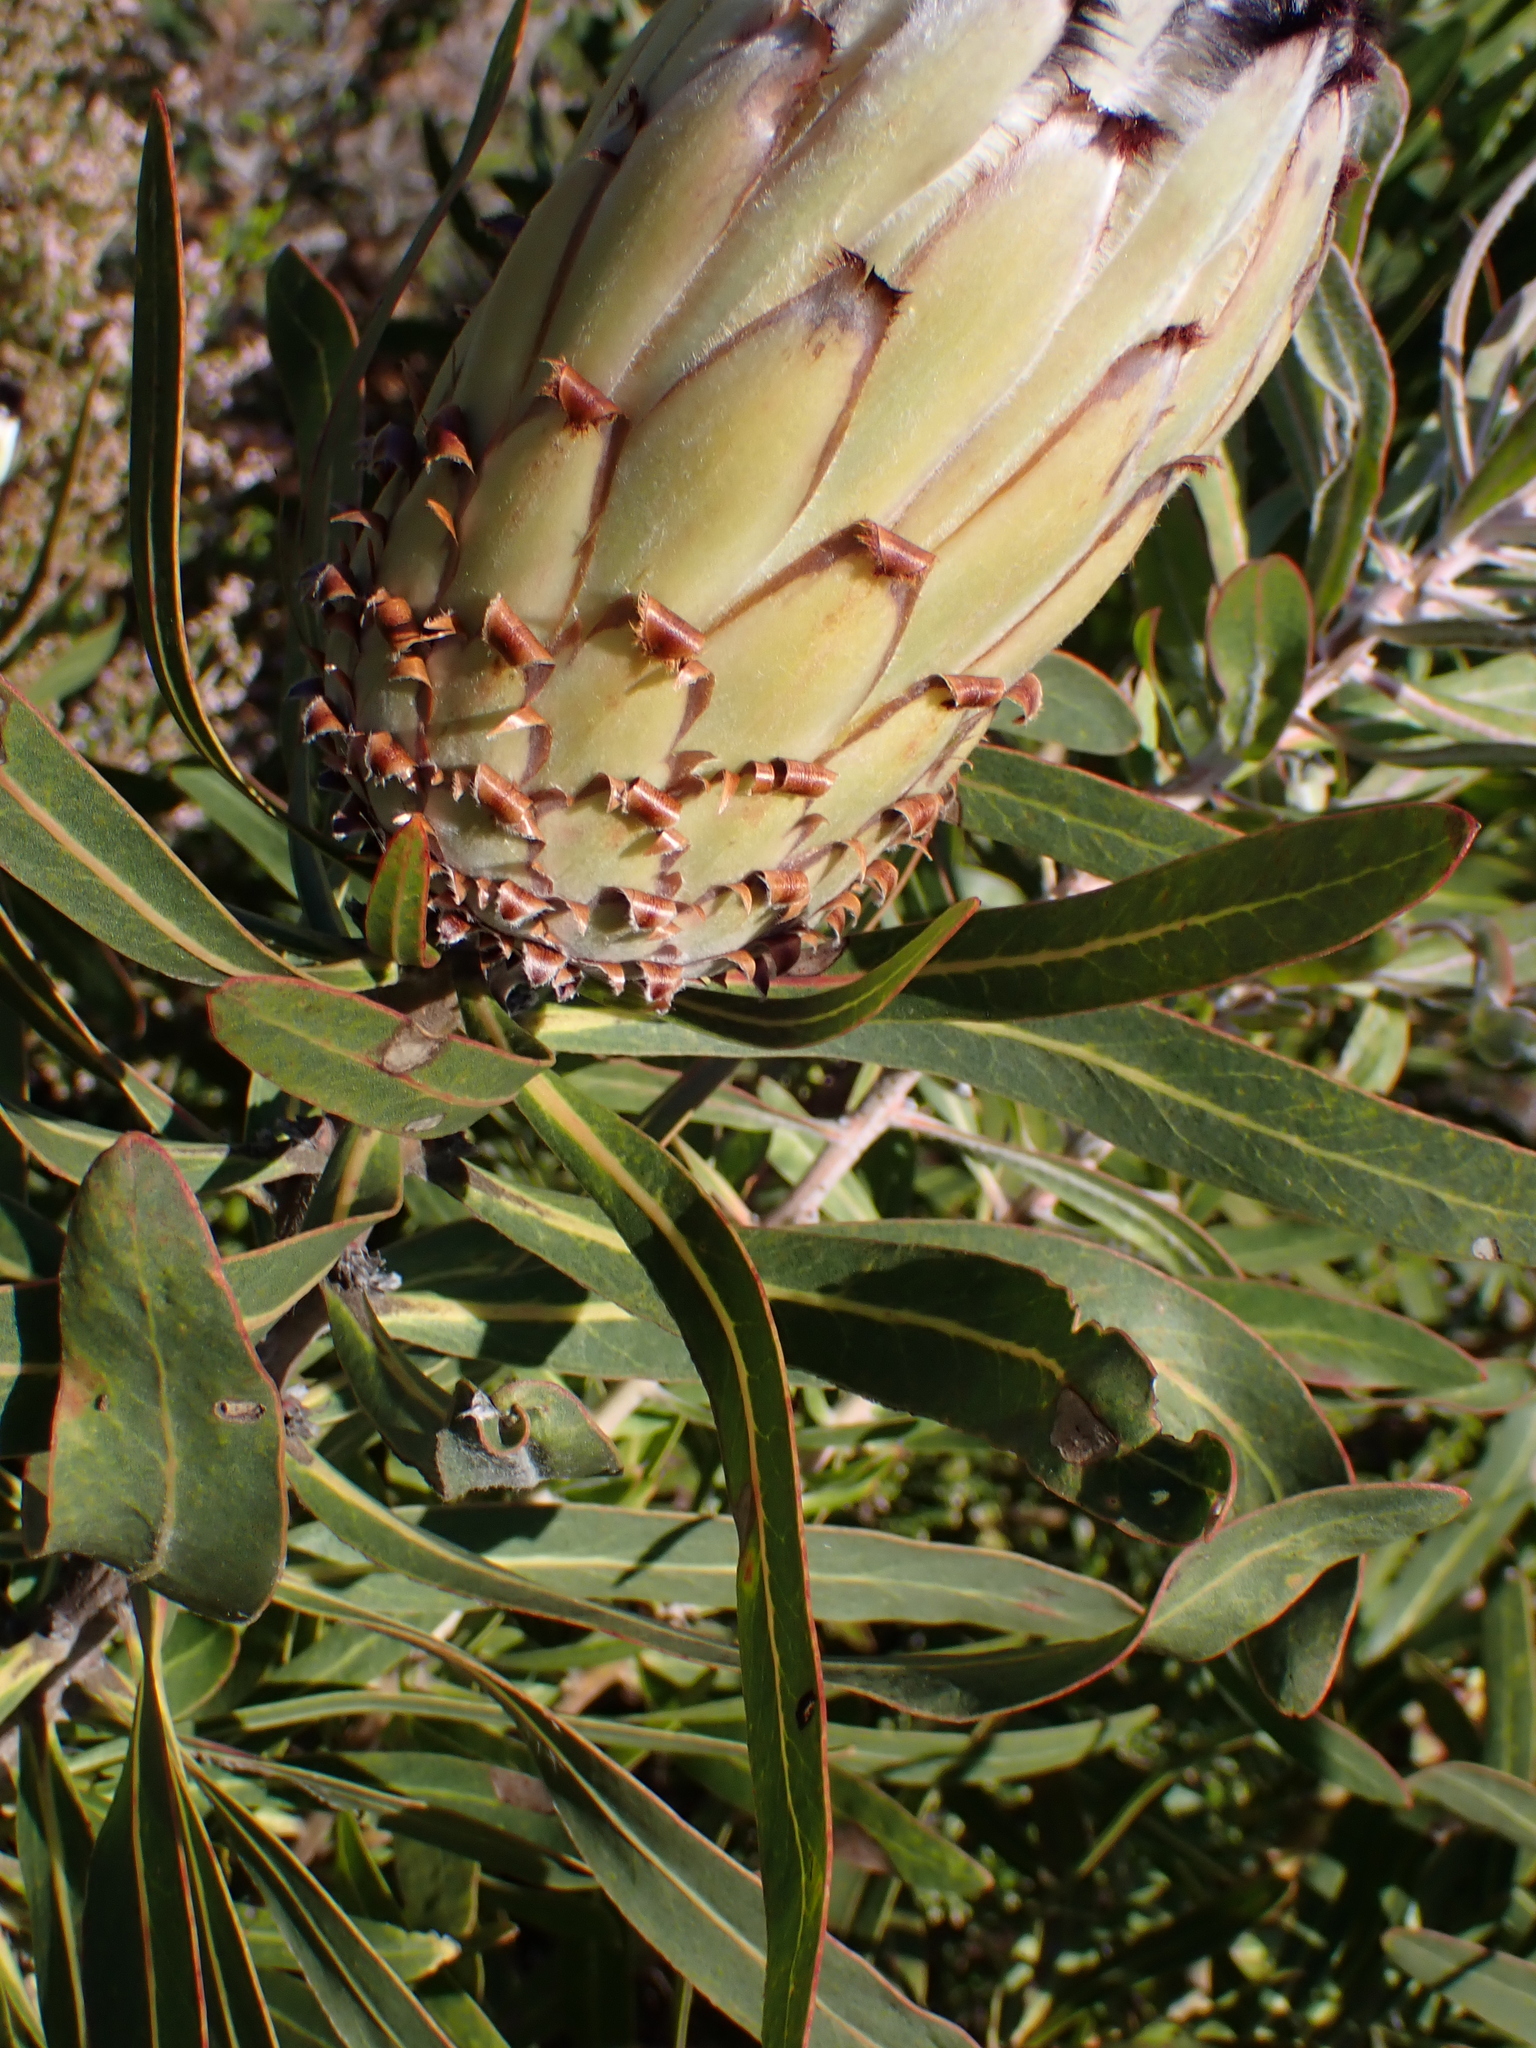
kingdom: Plantae
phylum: Tracheophyta
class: Magnoliopsida
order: Proteales
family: Proteaceae
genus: Protea
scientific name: Protea neriifolia
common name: Blue sugarbush
